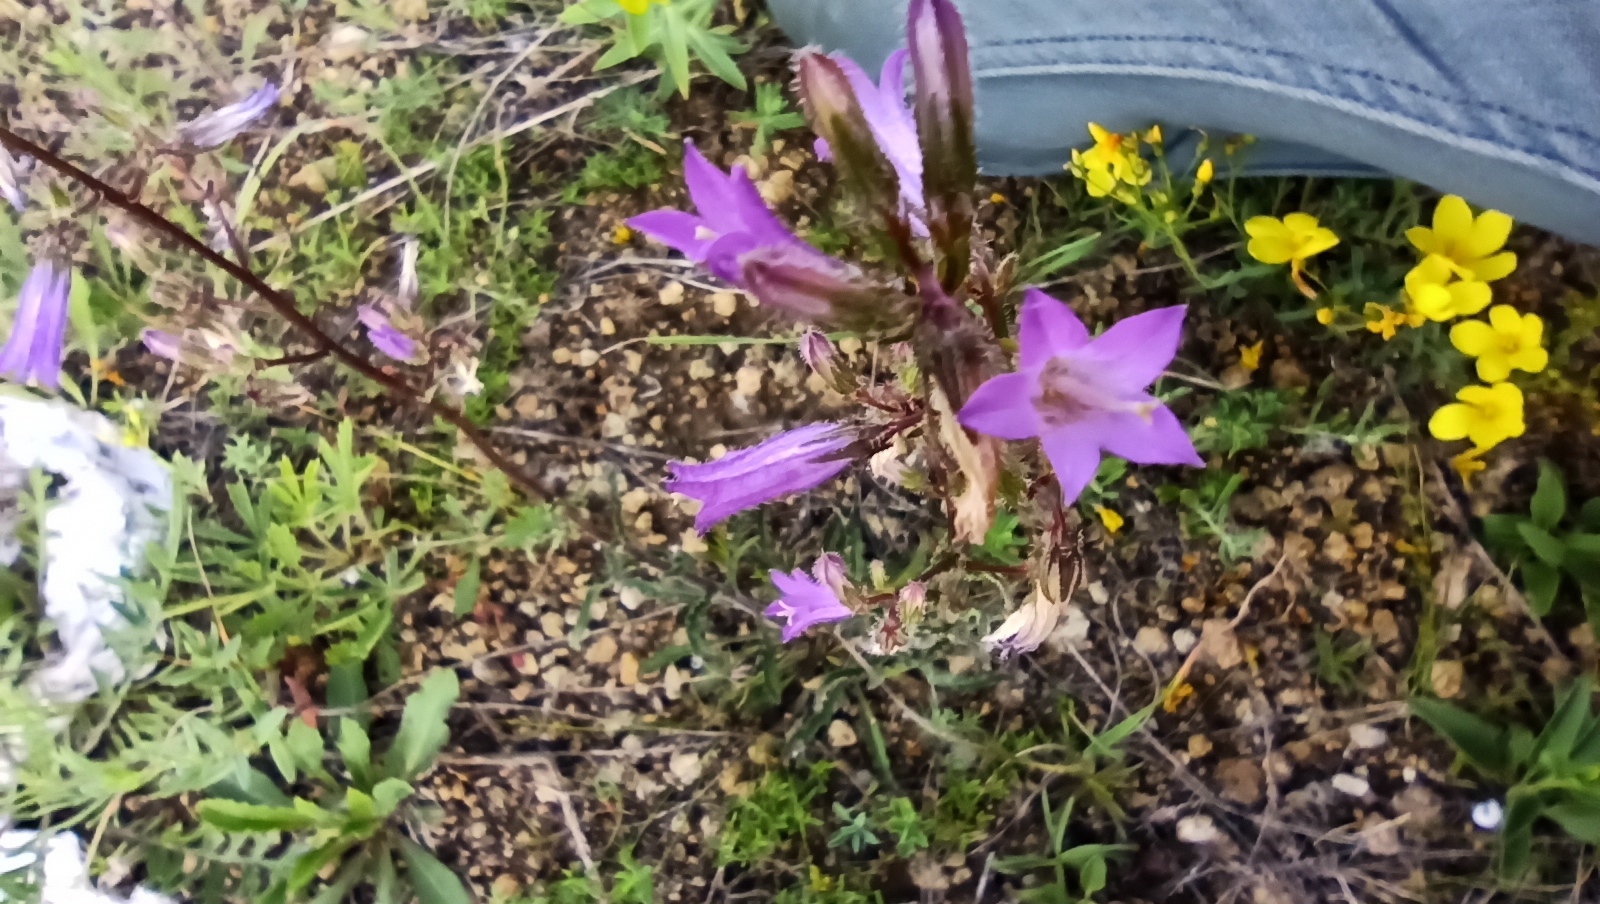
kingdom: Plantae
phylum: Tracheophyta
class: Magnoliopsida
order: Asterales
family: Campanulaceae
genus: Campanula
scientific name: Campanula sibirica
